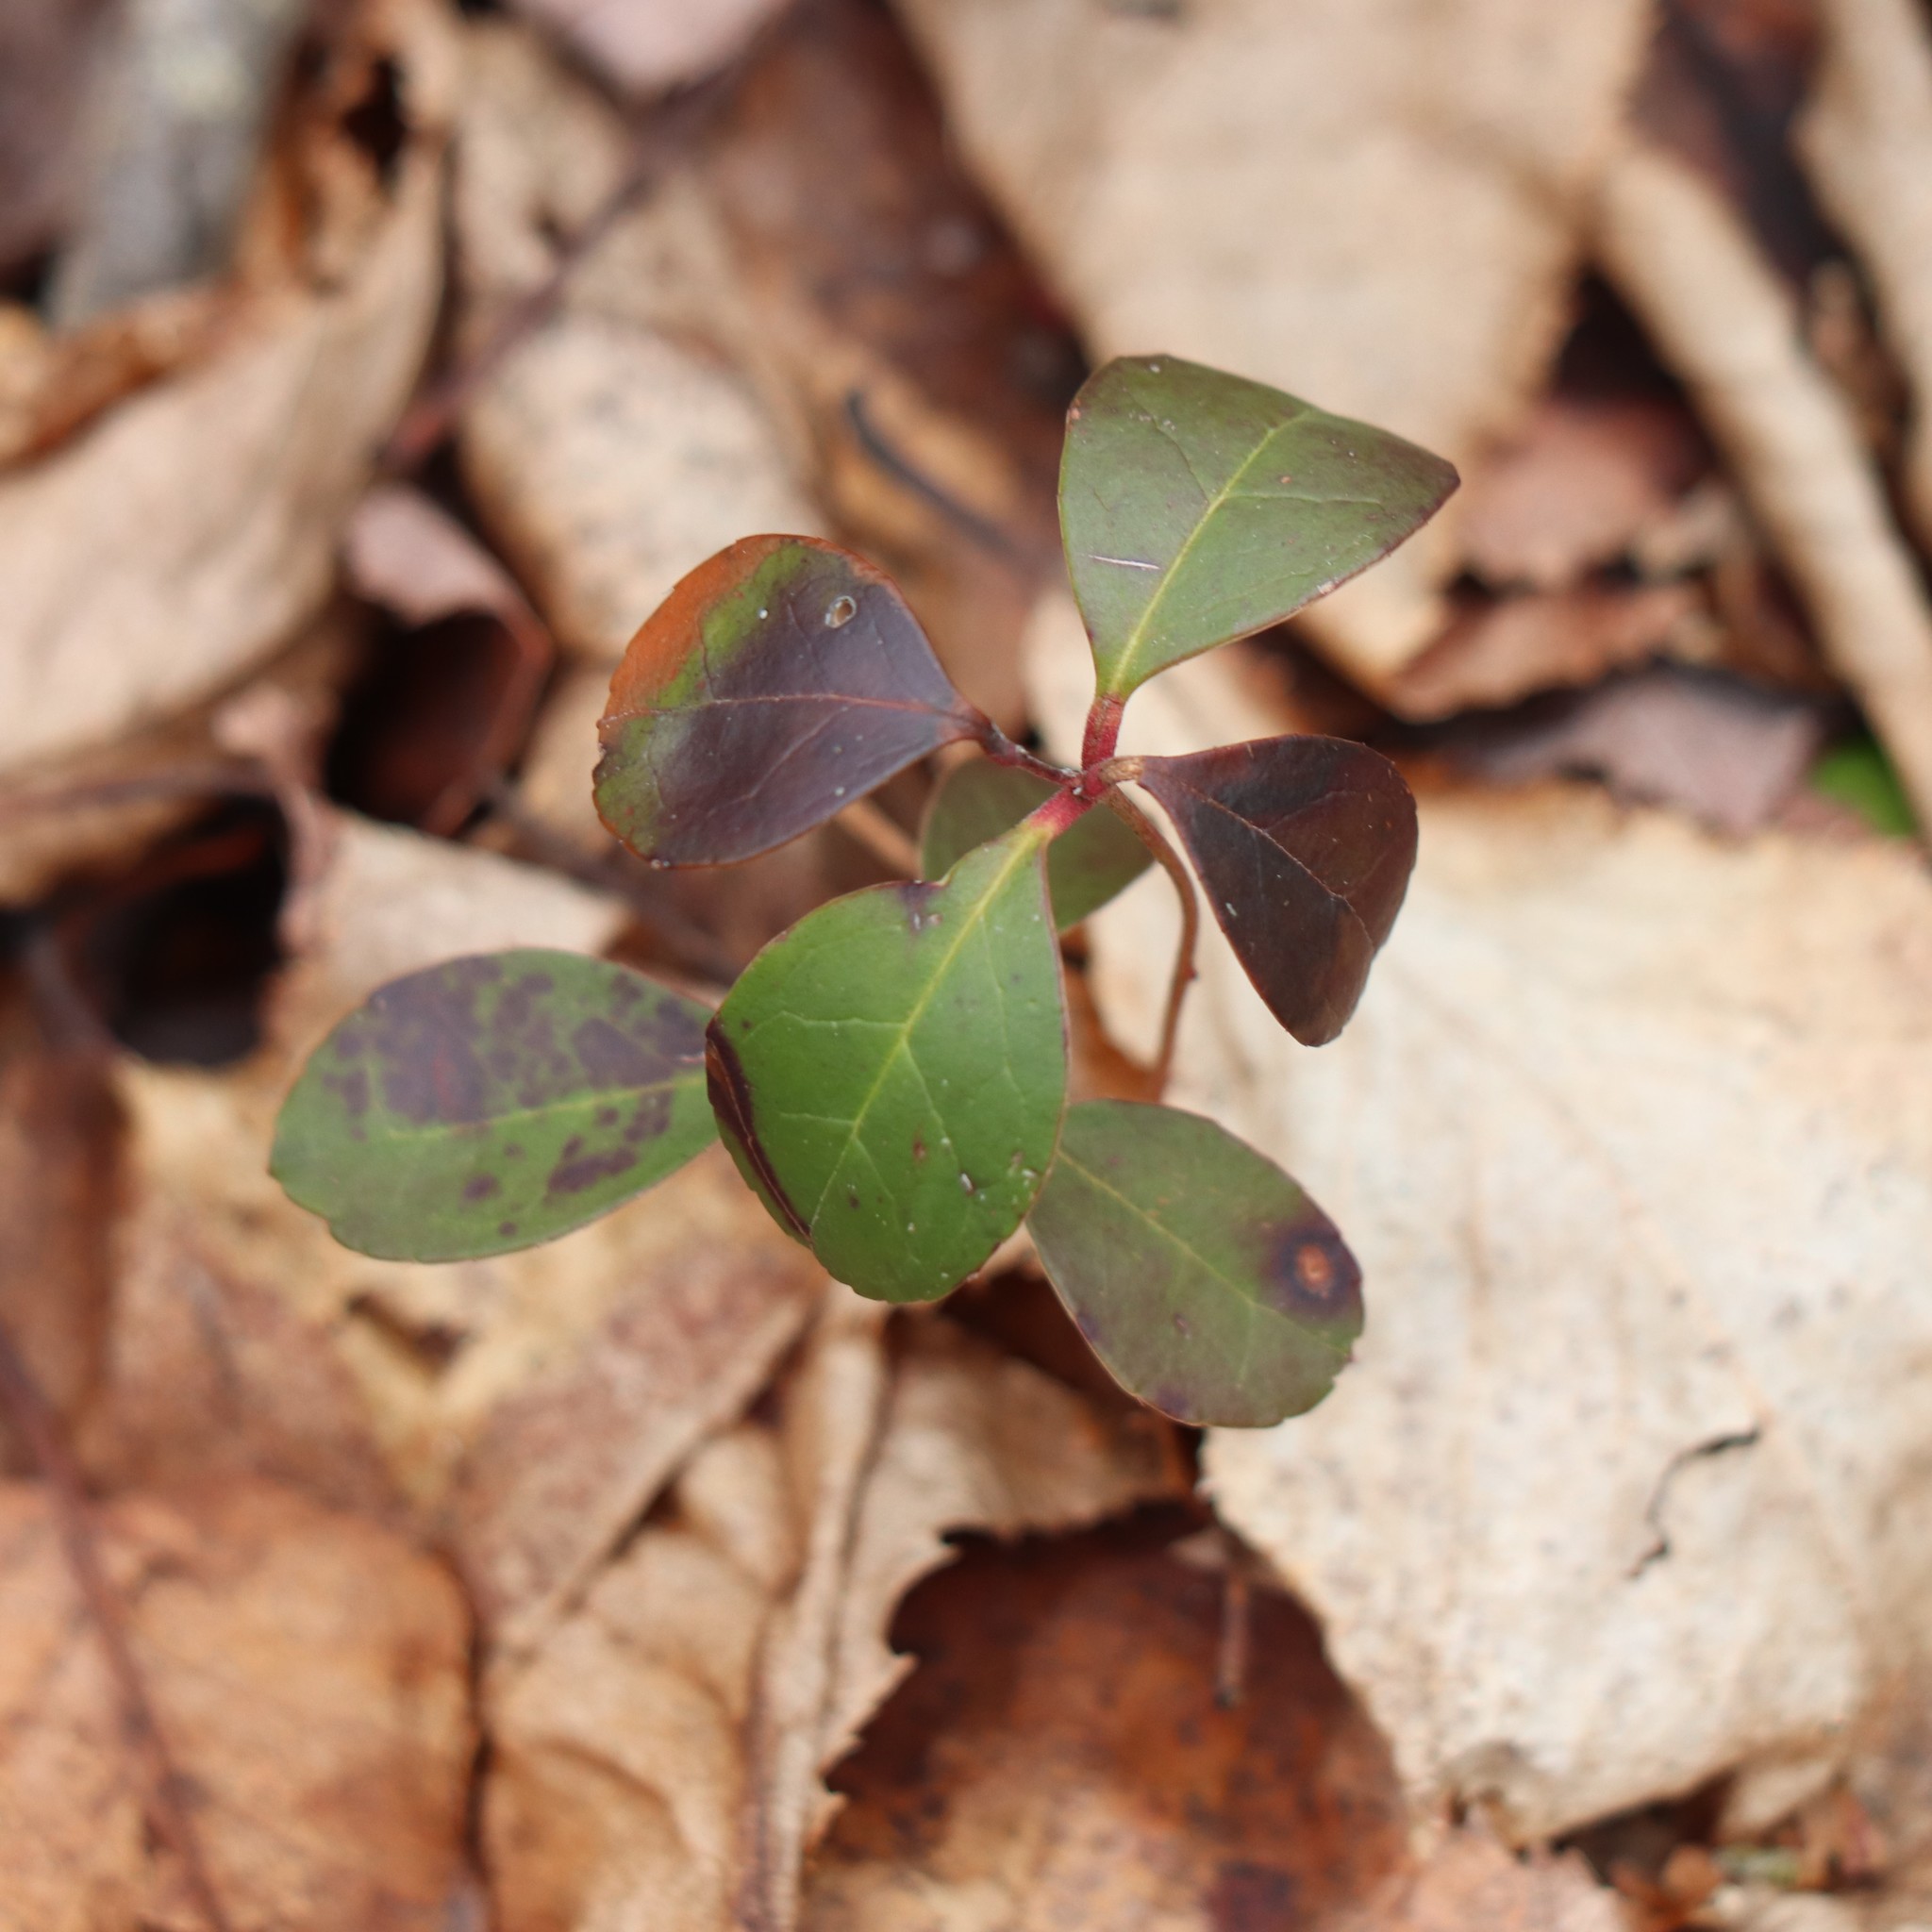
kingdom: Plantae
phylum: Tracheophyta
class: Magnoliopsida
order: Ericales
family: Ericaceae
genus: Gaultheria
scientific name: Gaultheria procumbens
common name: Checkerberry
